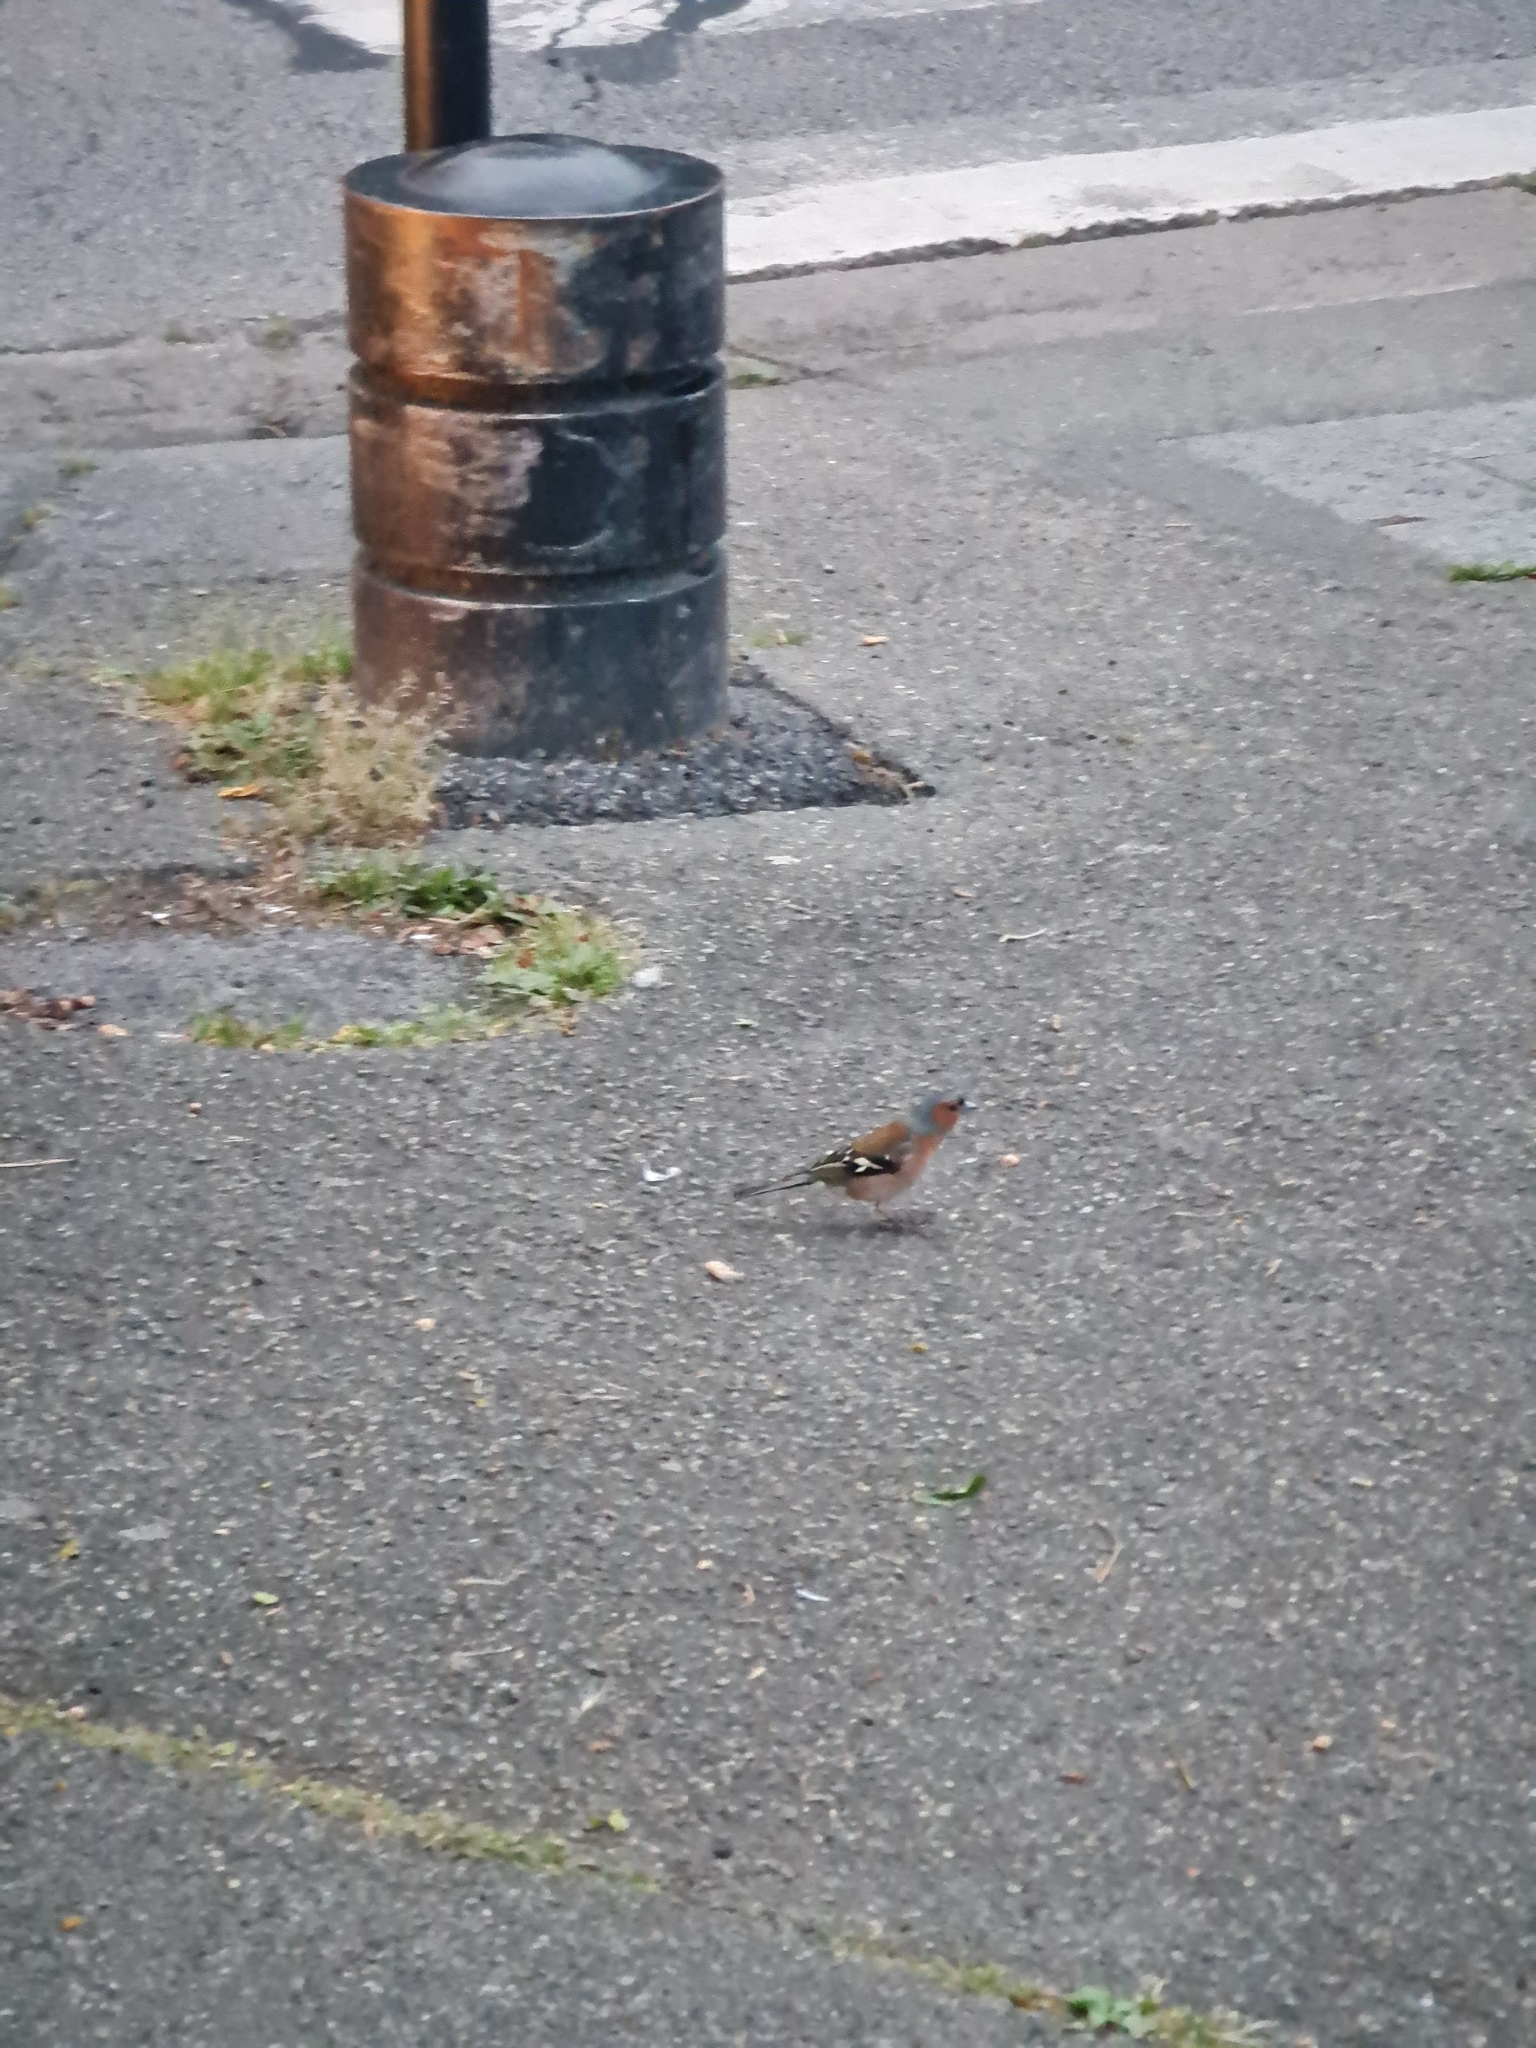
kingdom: Animalia
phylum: Chordata
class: Aves
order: Passeriformes
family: Fringillidae
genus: Fringilla
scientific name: Fringilla coelebs
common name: Common chaffinch
